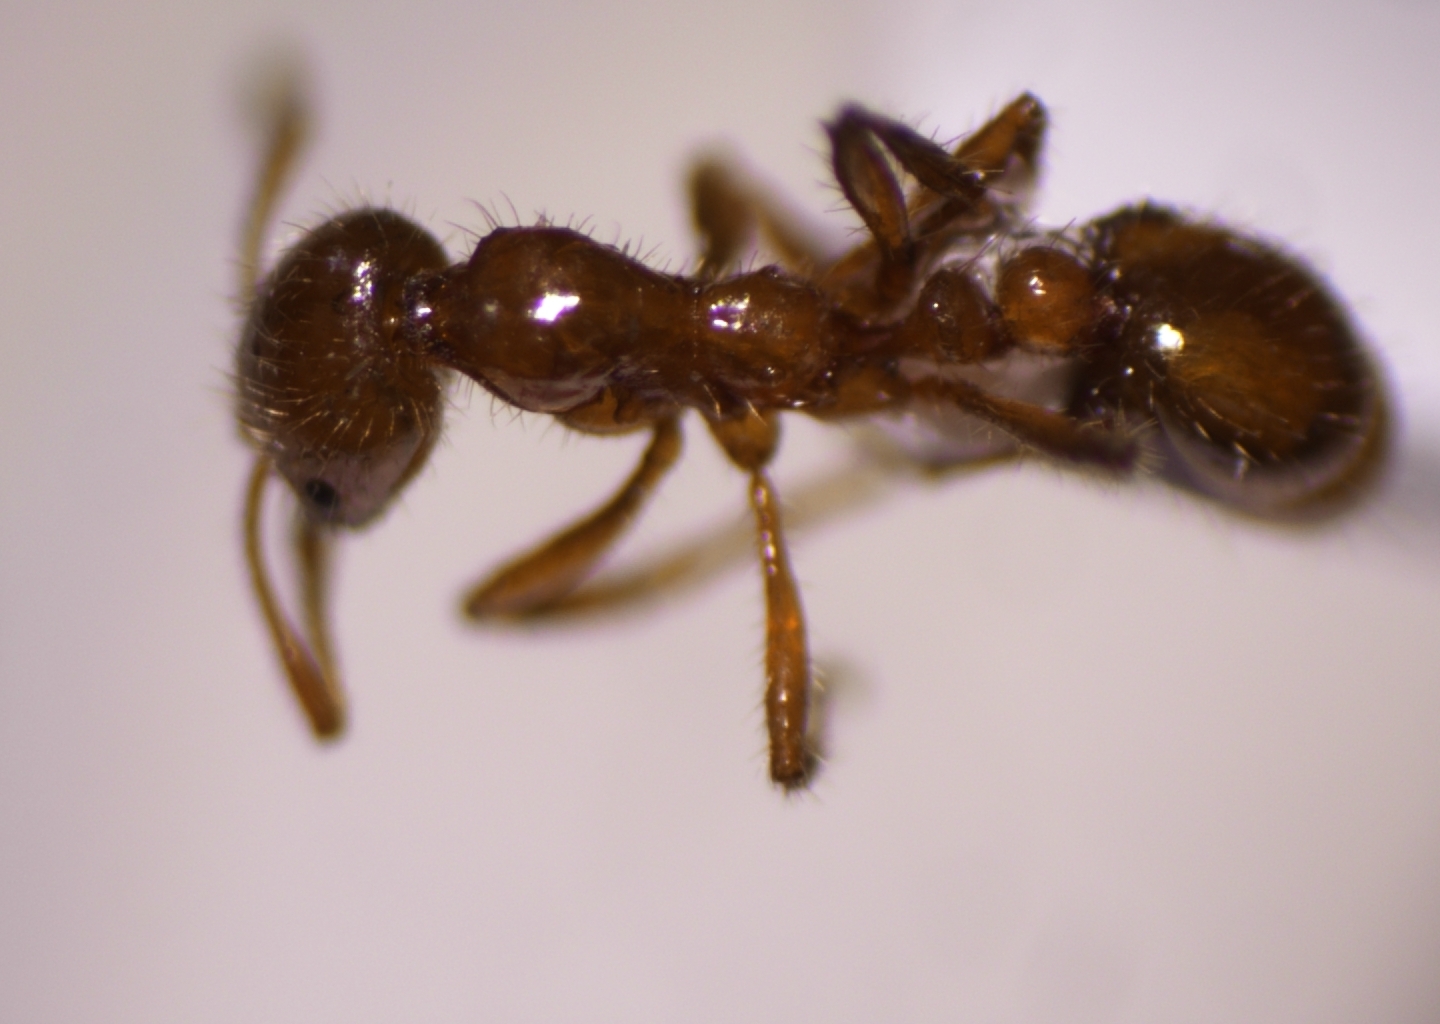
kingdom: Animalia
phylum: Arthropoda
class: Insecta
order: Hymenoptera
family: Formicidae
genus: Solenopsis
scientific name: Solenopsis geminata
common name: Tropical fire ant
